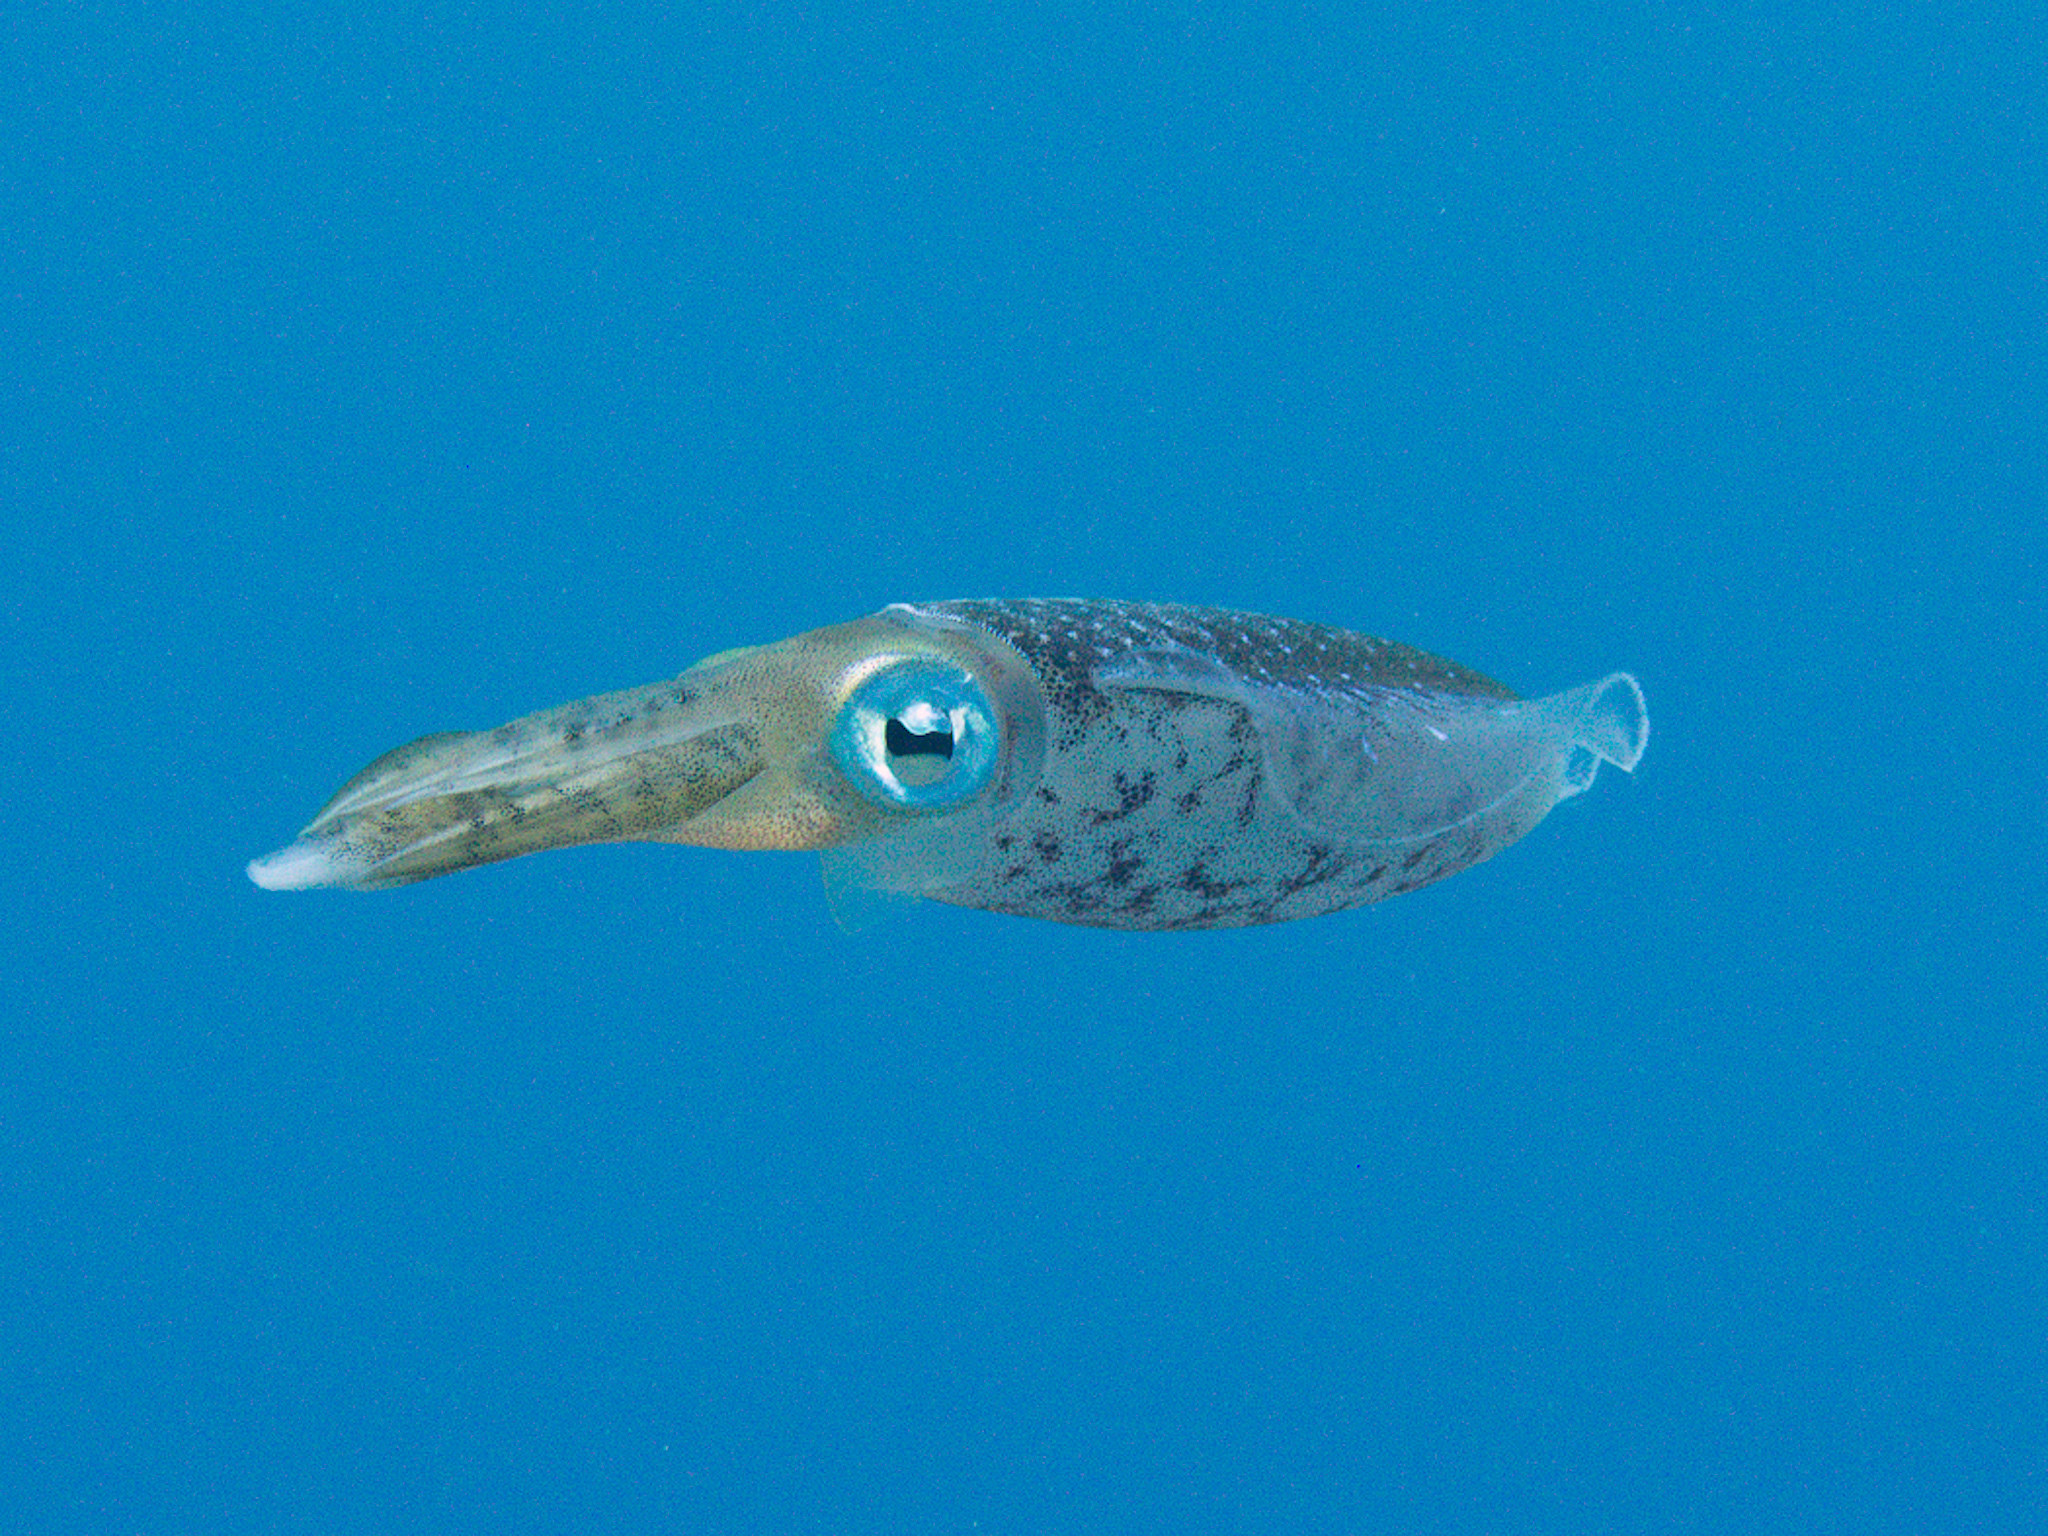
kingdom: Animalia
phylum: Mollusca
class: Cephalopoda
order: Myopsida
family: Loliginidae
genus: Sepioteuthis
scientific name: Sepioteuthis sepioidea
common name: Caribbean reef squid
